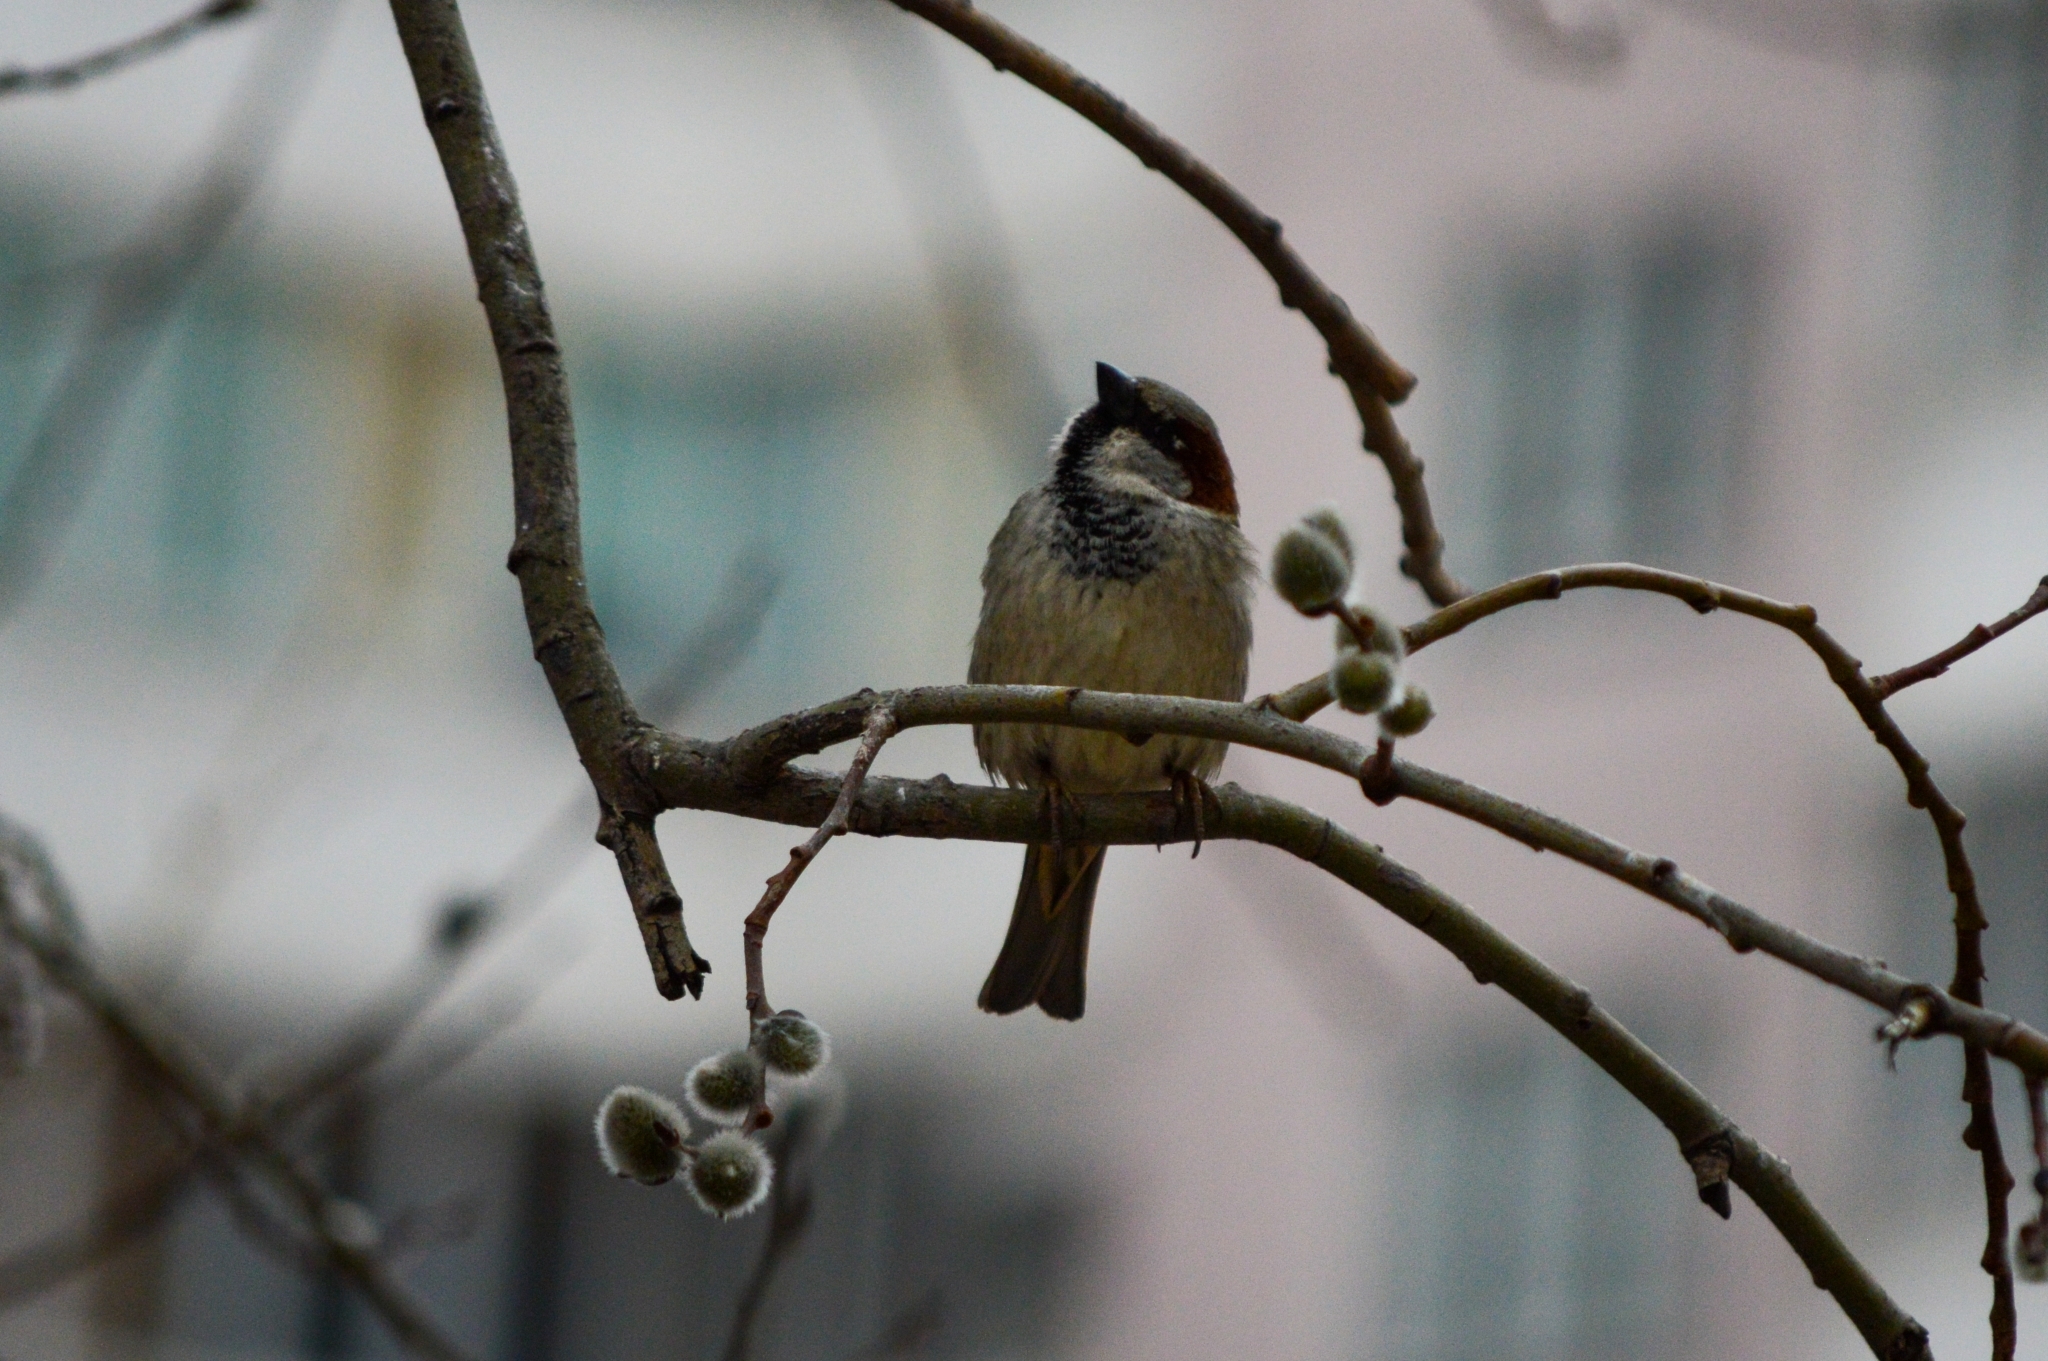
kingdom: Animalia
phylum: Chordata
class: Aves
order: Passeriformes
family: Passeridae
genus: Passer
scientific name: Passer domesticus
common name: House sparrow
